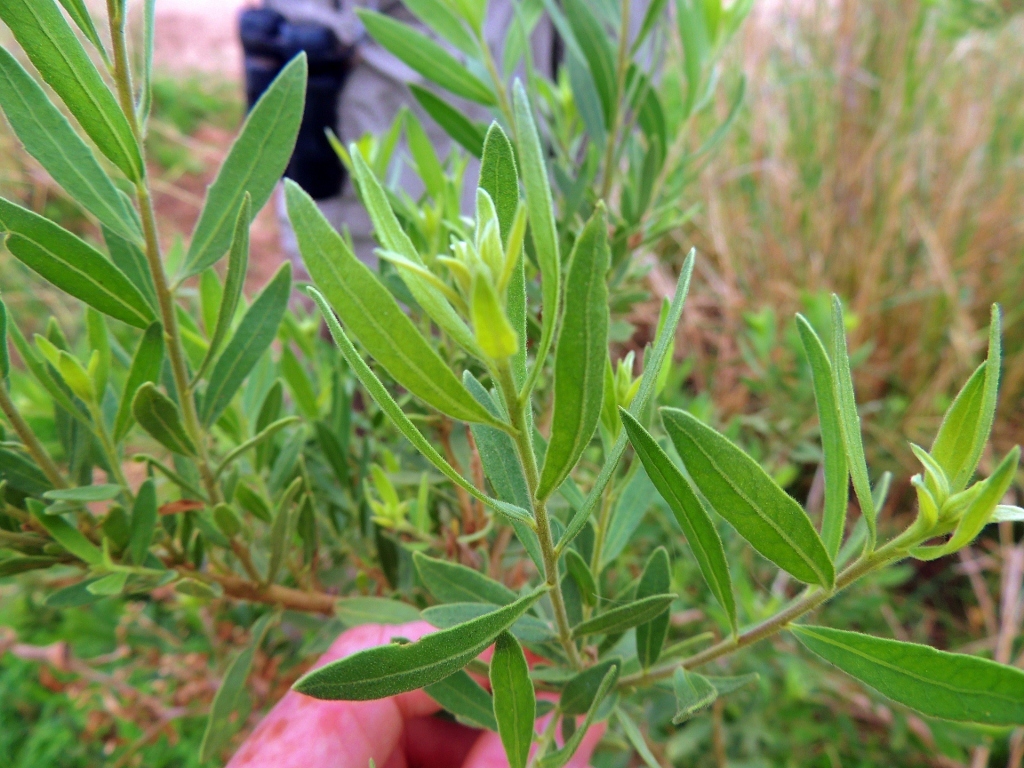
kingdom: Plantae
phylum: Tracheophyta
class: Magnoliopsida
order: Asterales
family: Asteraceae
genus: Pluchea
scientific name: Pluchea dioscoridis
